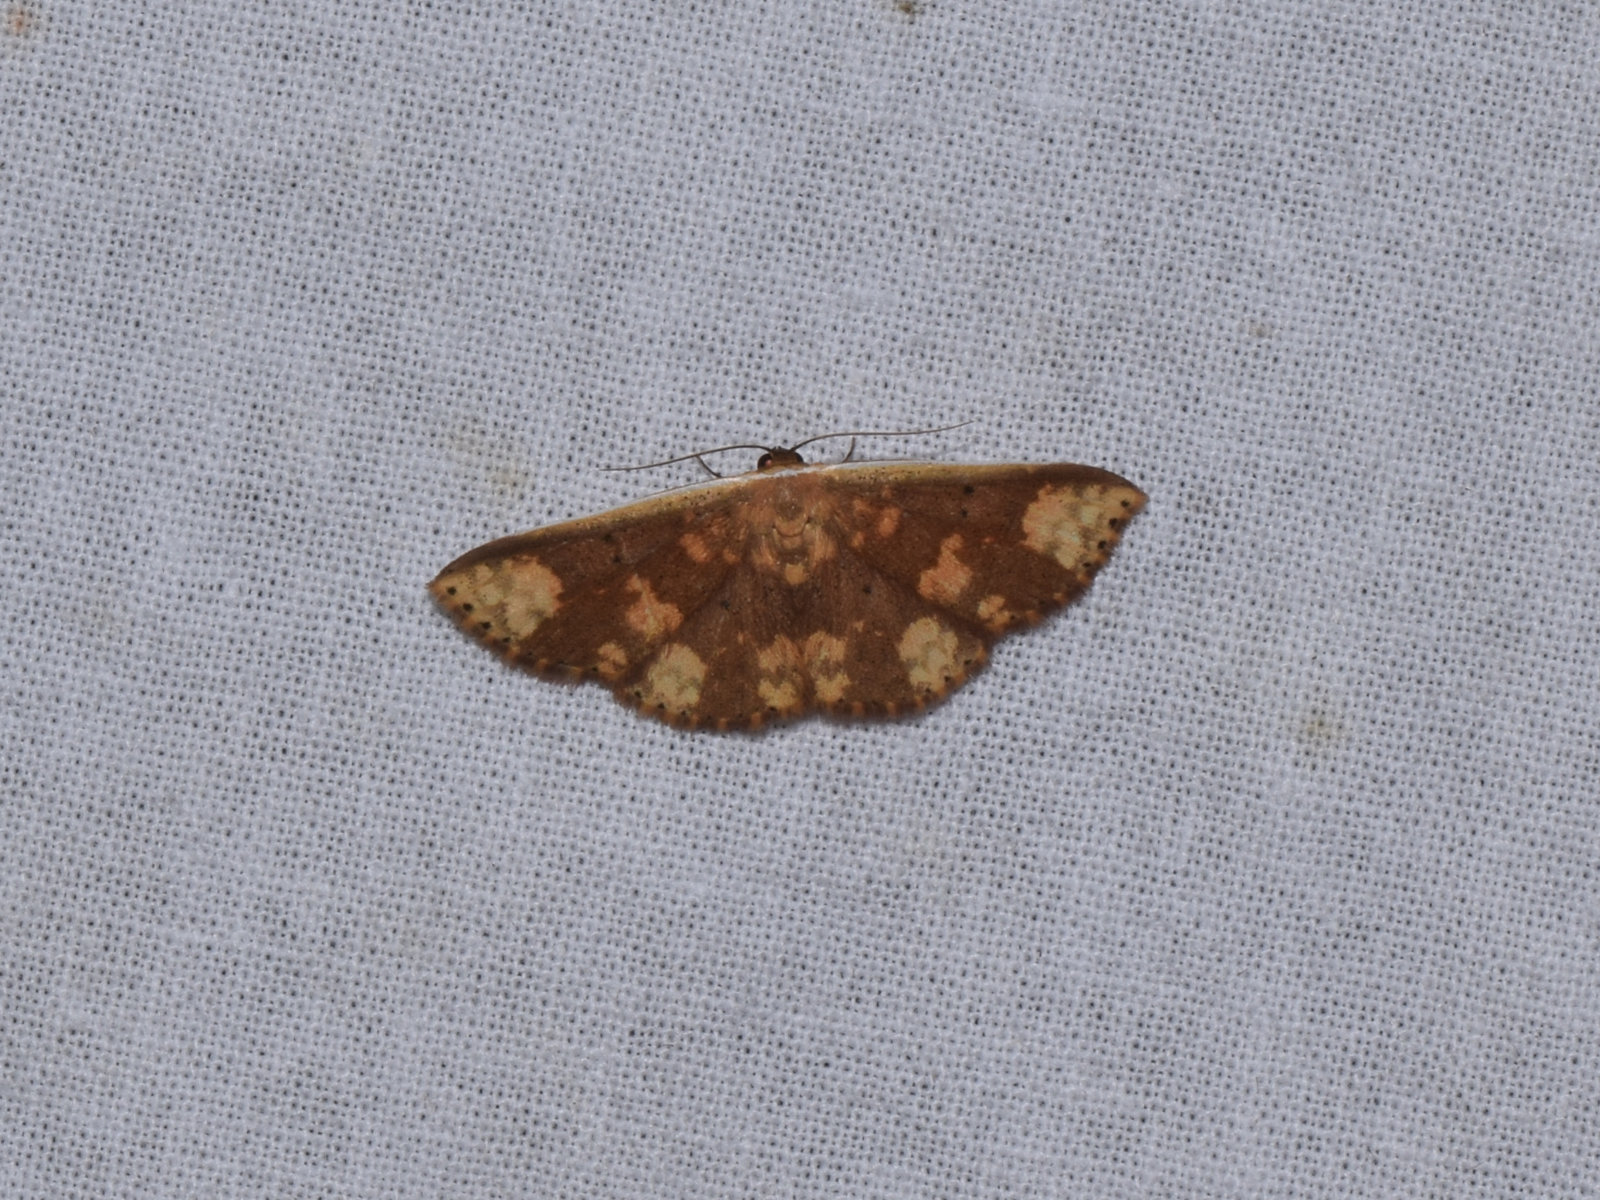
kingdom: Animalia
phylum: Arthropoda
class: Insecta
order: Lepidoptera
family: Noctuidae
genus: Arasada
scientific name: Arasada ornata
